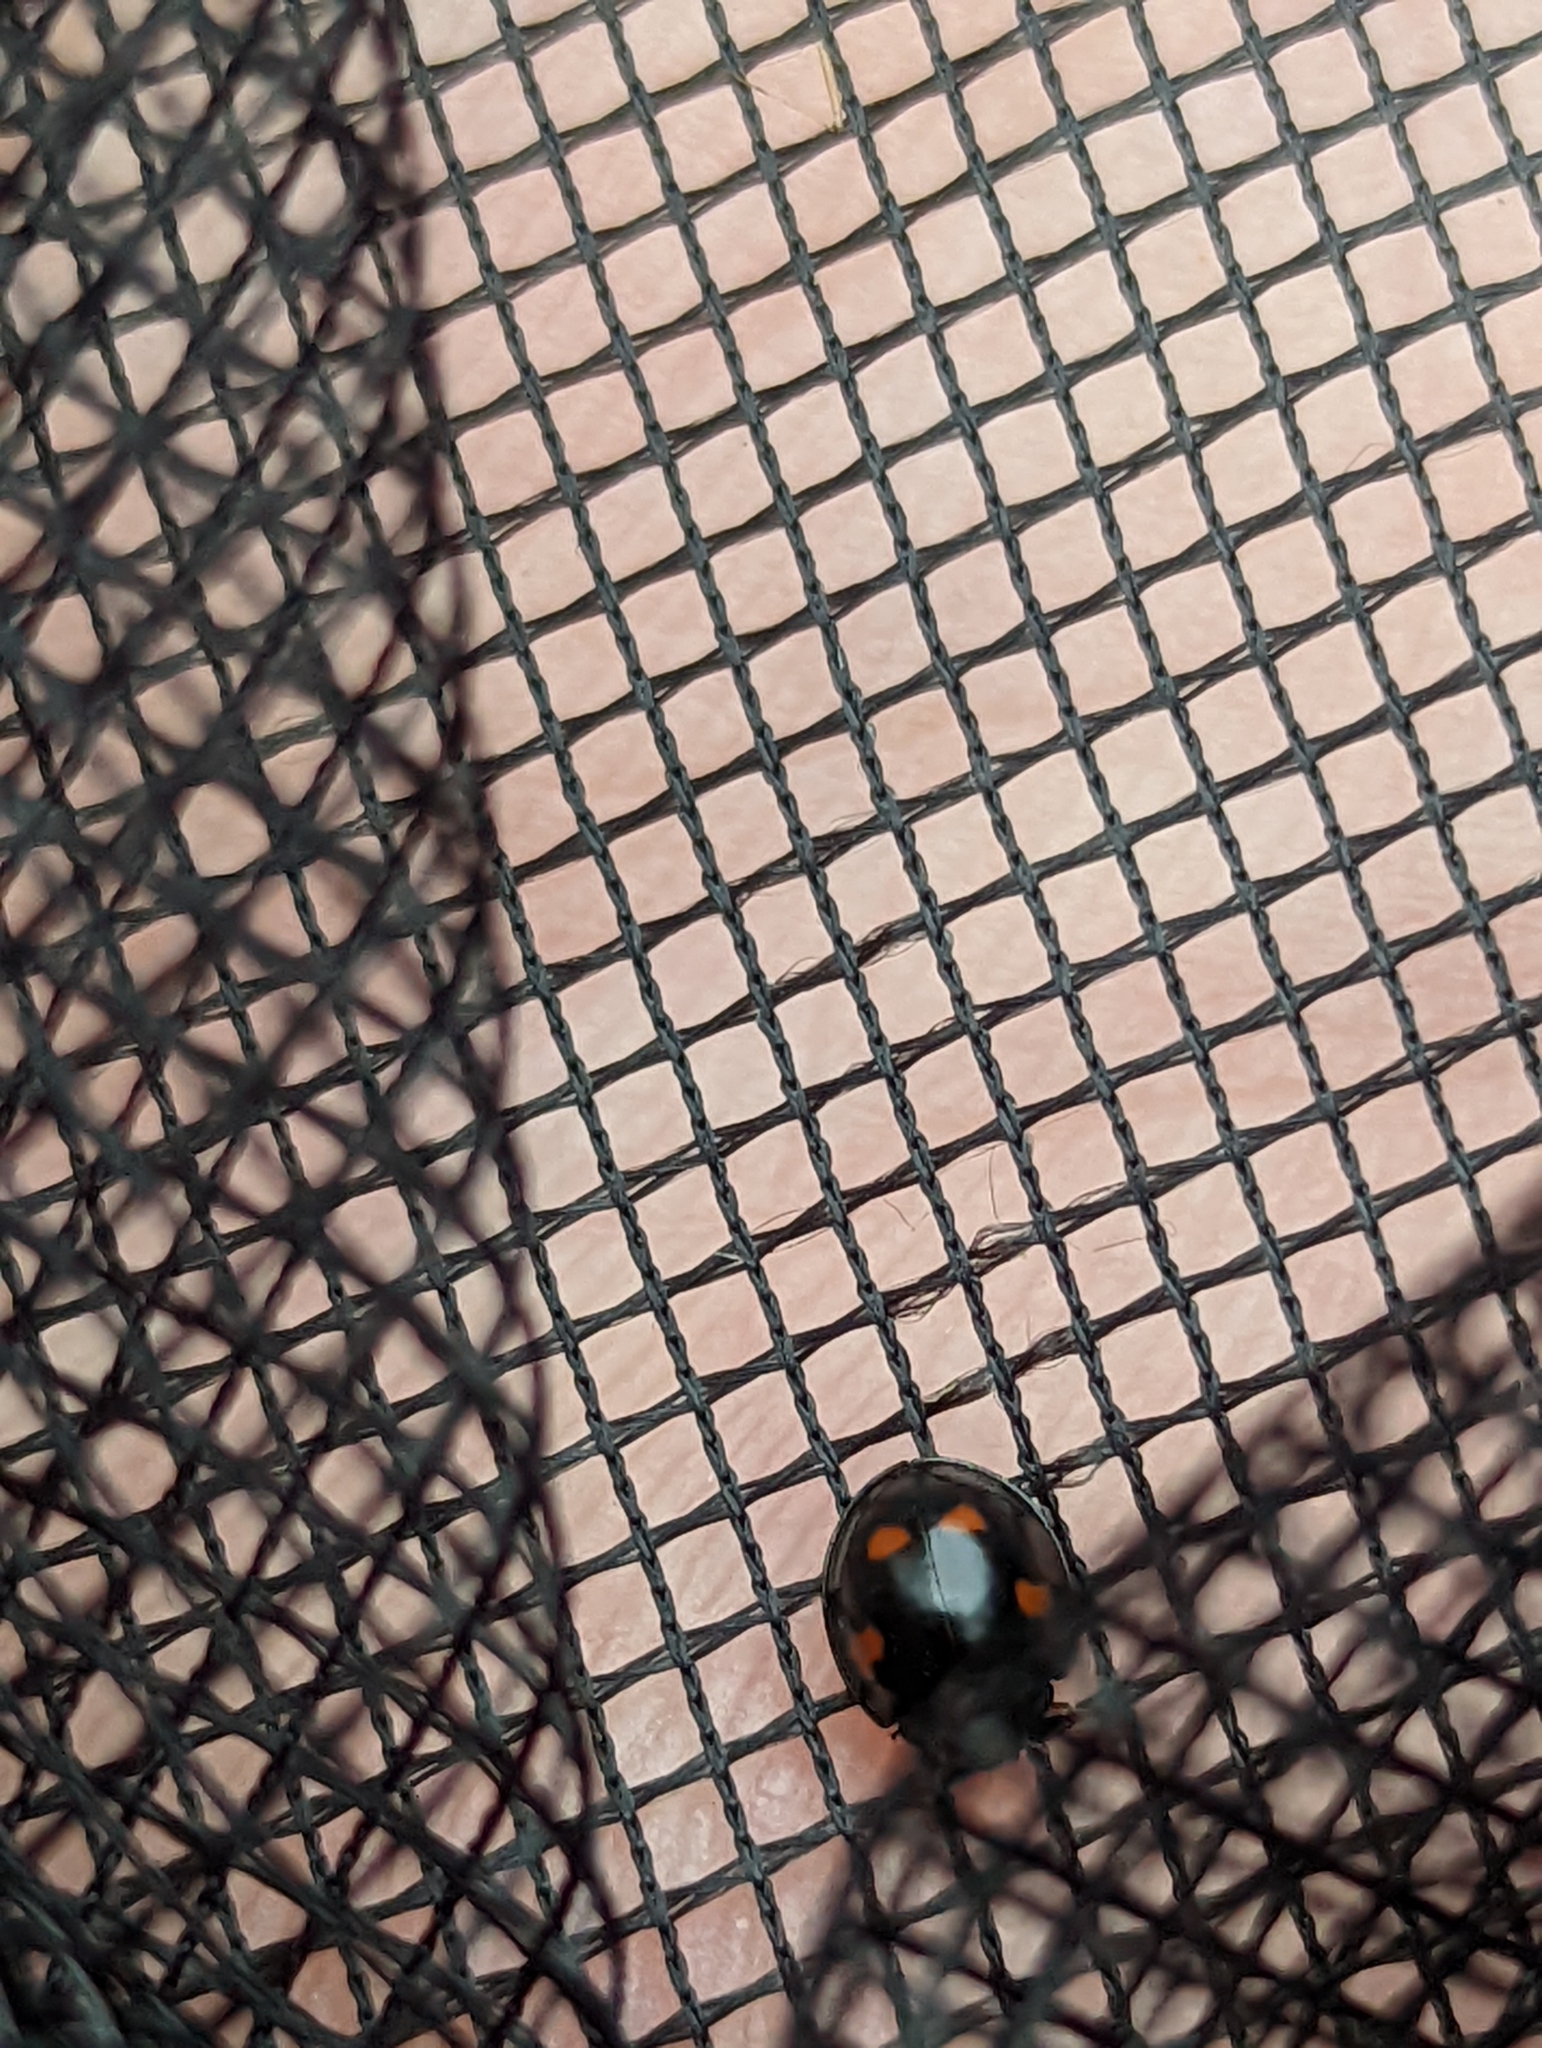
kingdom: Animalia
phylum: Arthropoda
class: Insecta
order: Coleoptera
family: Coccinellidae
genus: Brumus
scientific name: Brumus quadripustulatus
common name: Ladybird beetle
